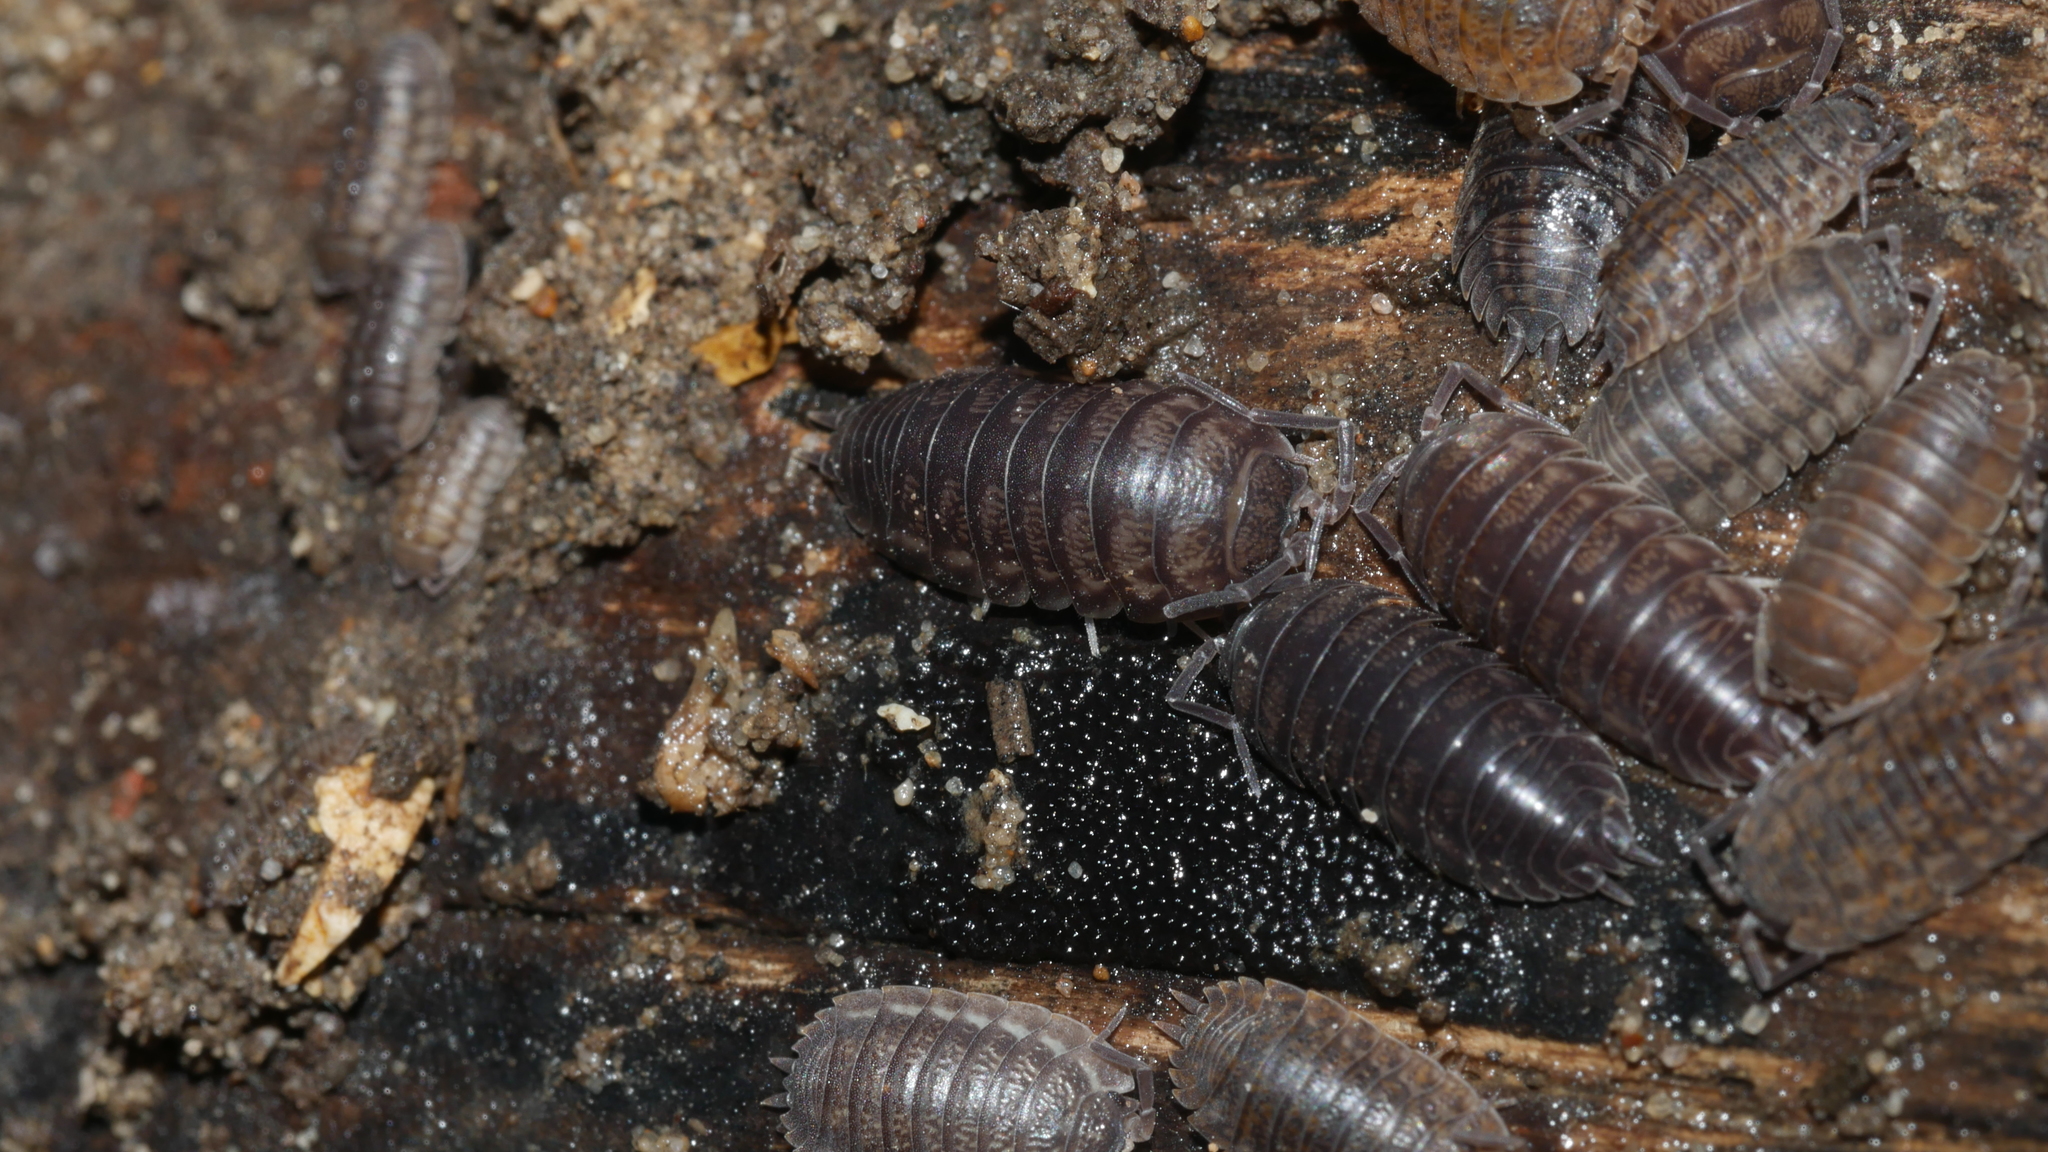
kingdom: Animalia
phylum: Arthropoda
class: Malacostraca
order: Isopoda
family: Cylisticidae
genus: Cylisticus
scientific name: Cylisticus convexus
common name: Curly woodlouse
